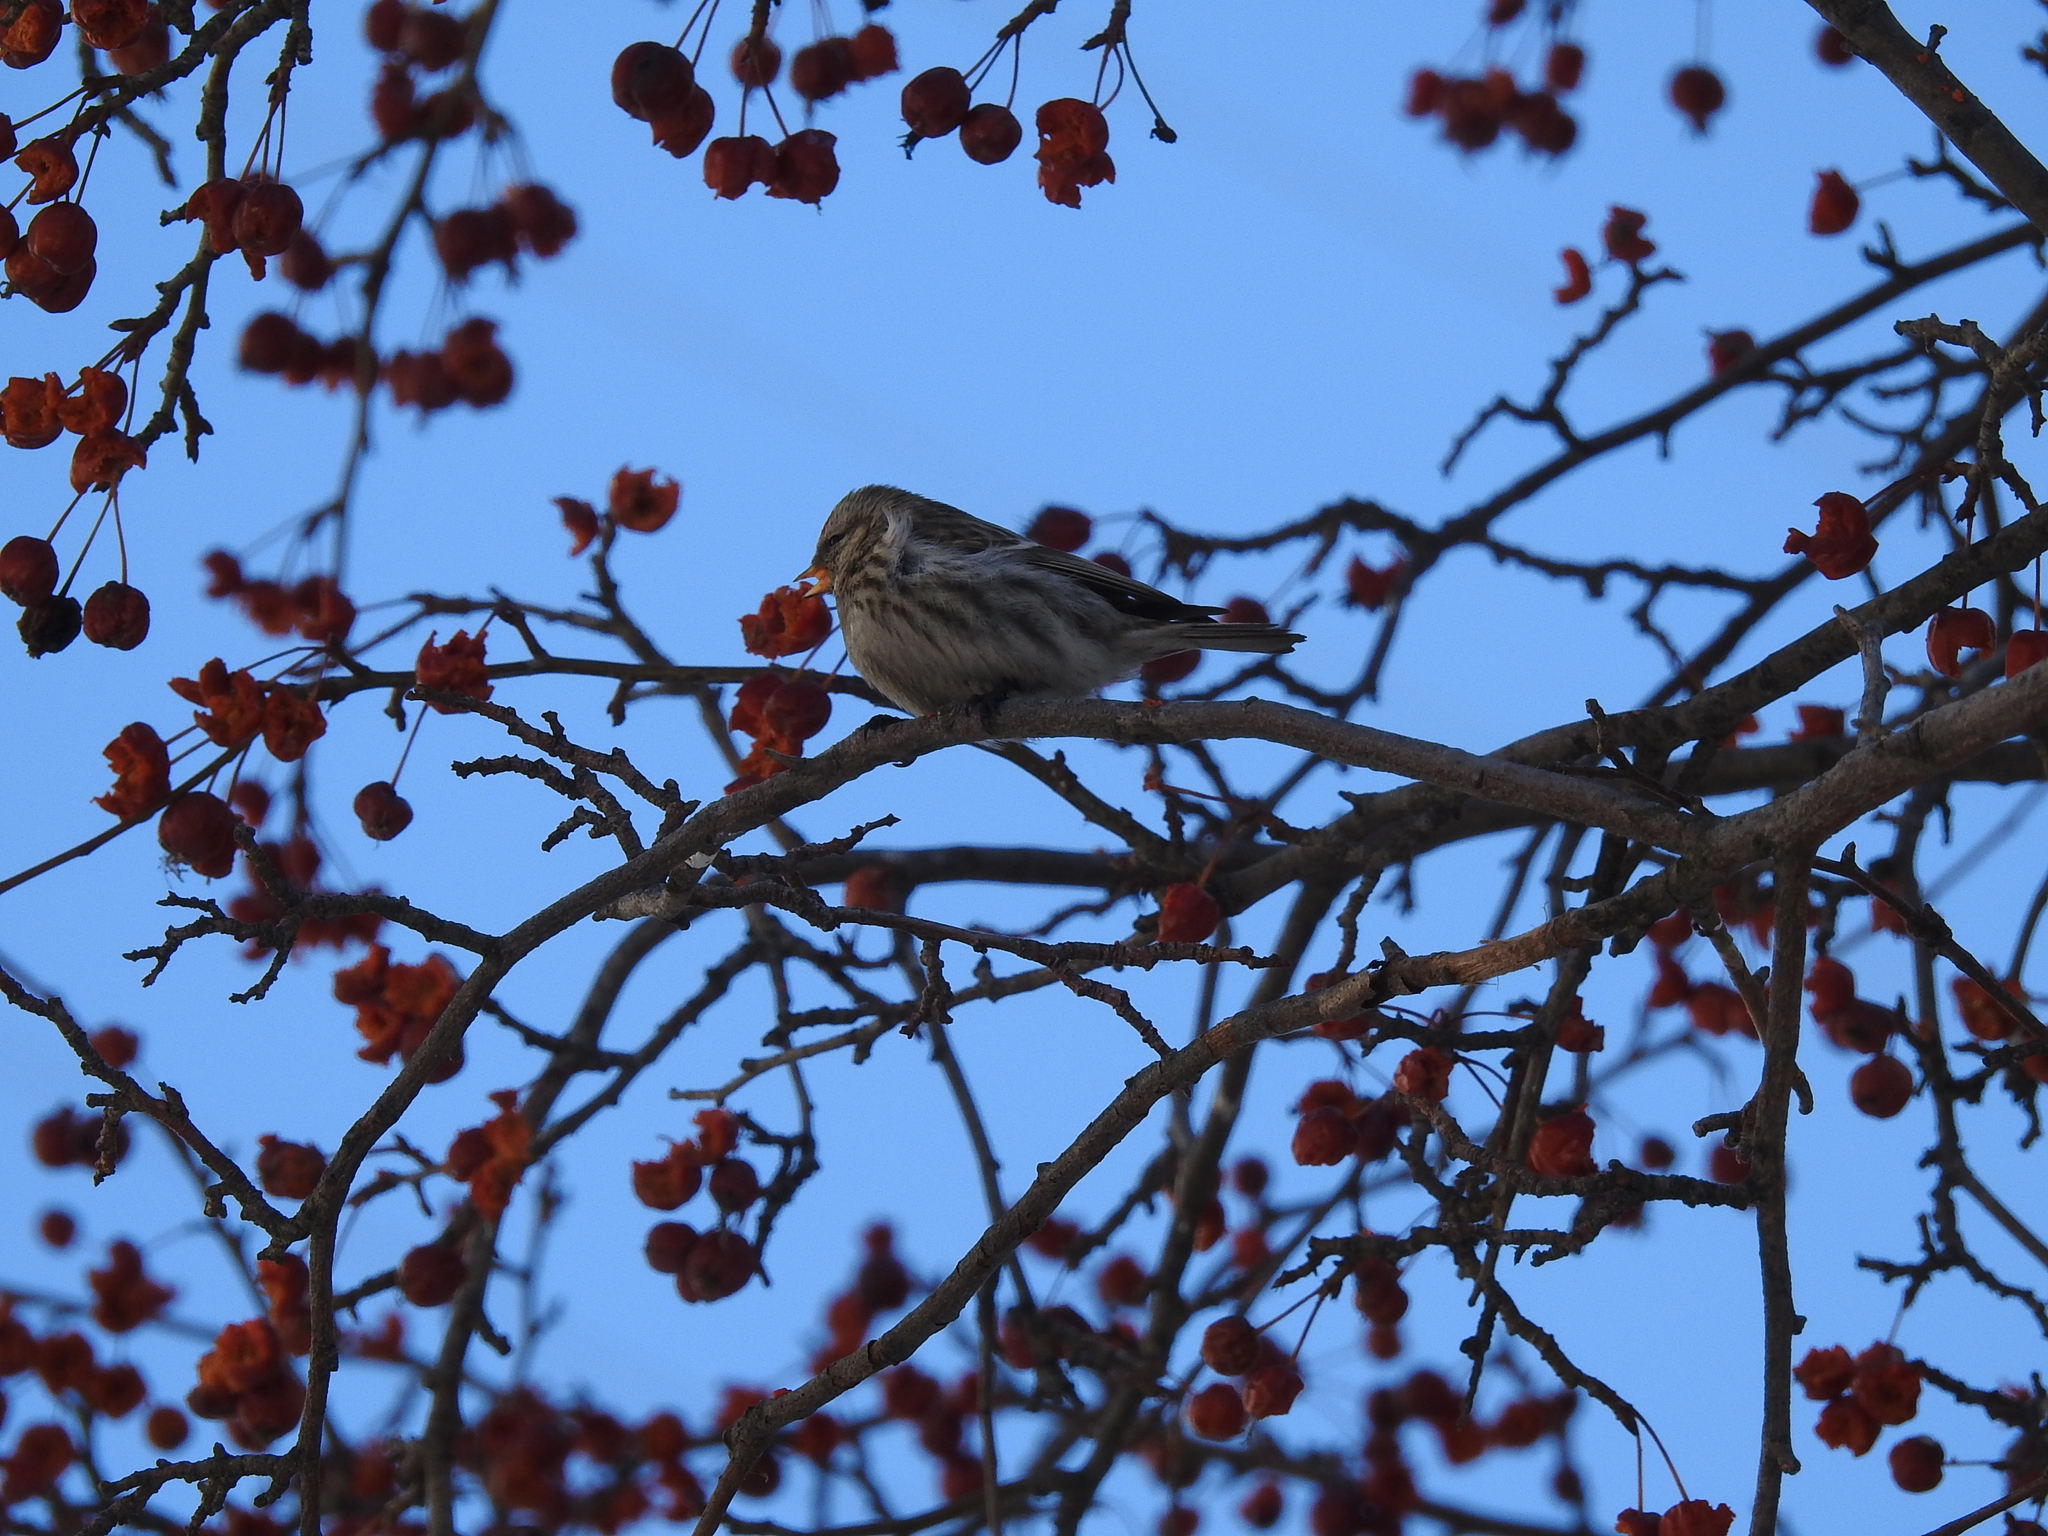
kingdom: Animalia
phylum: Chordata
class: Aves
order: Passeriformes
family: Fringillidae
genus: Acanthis
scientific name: Acanthis flammea
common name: Common redpoll
